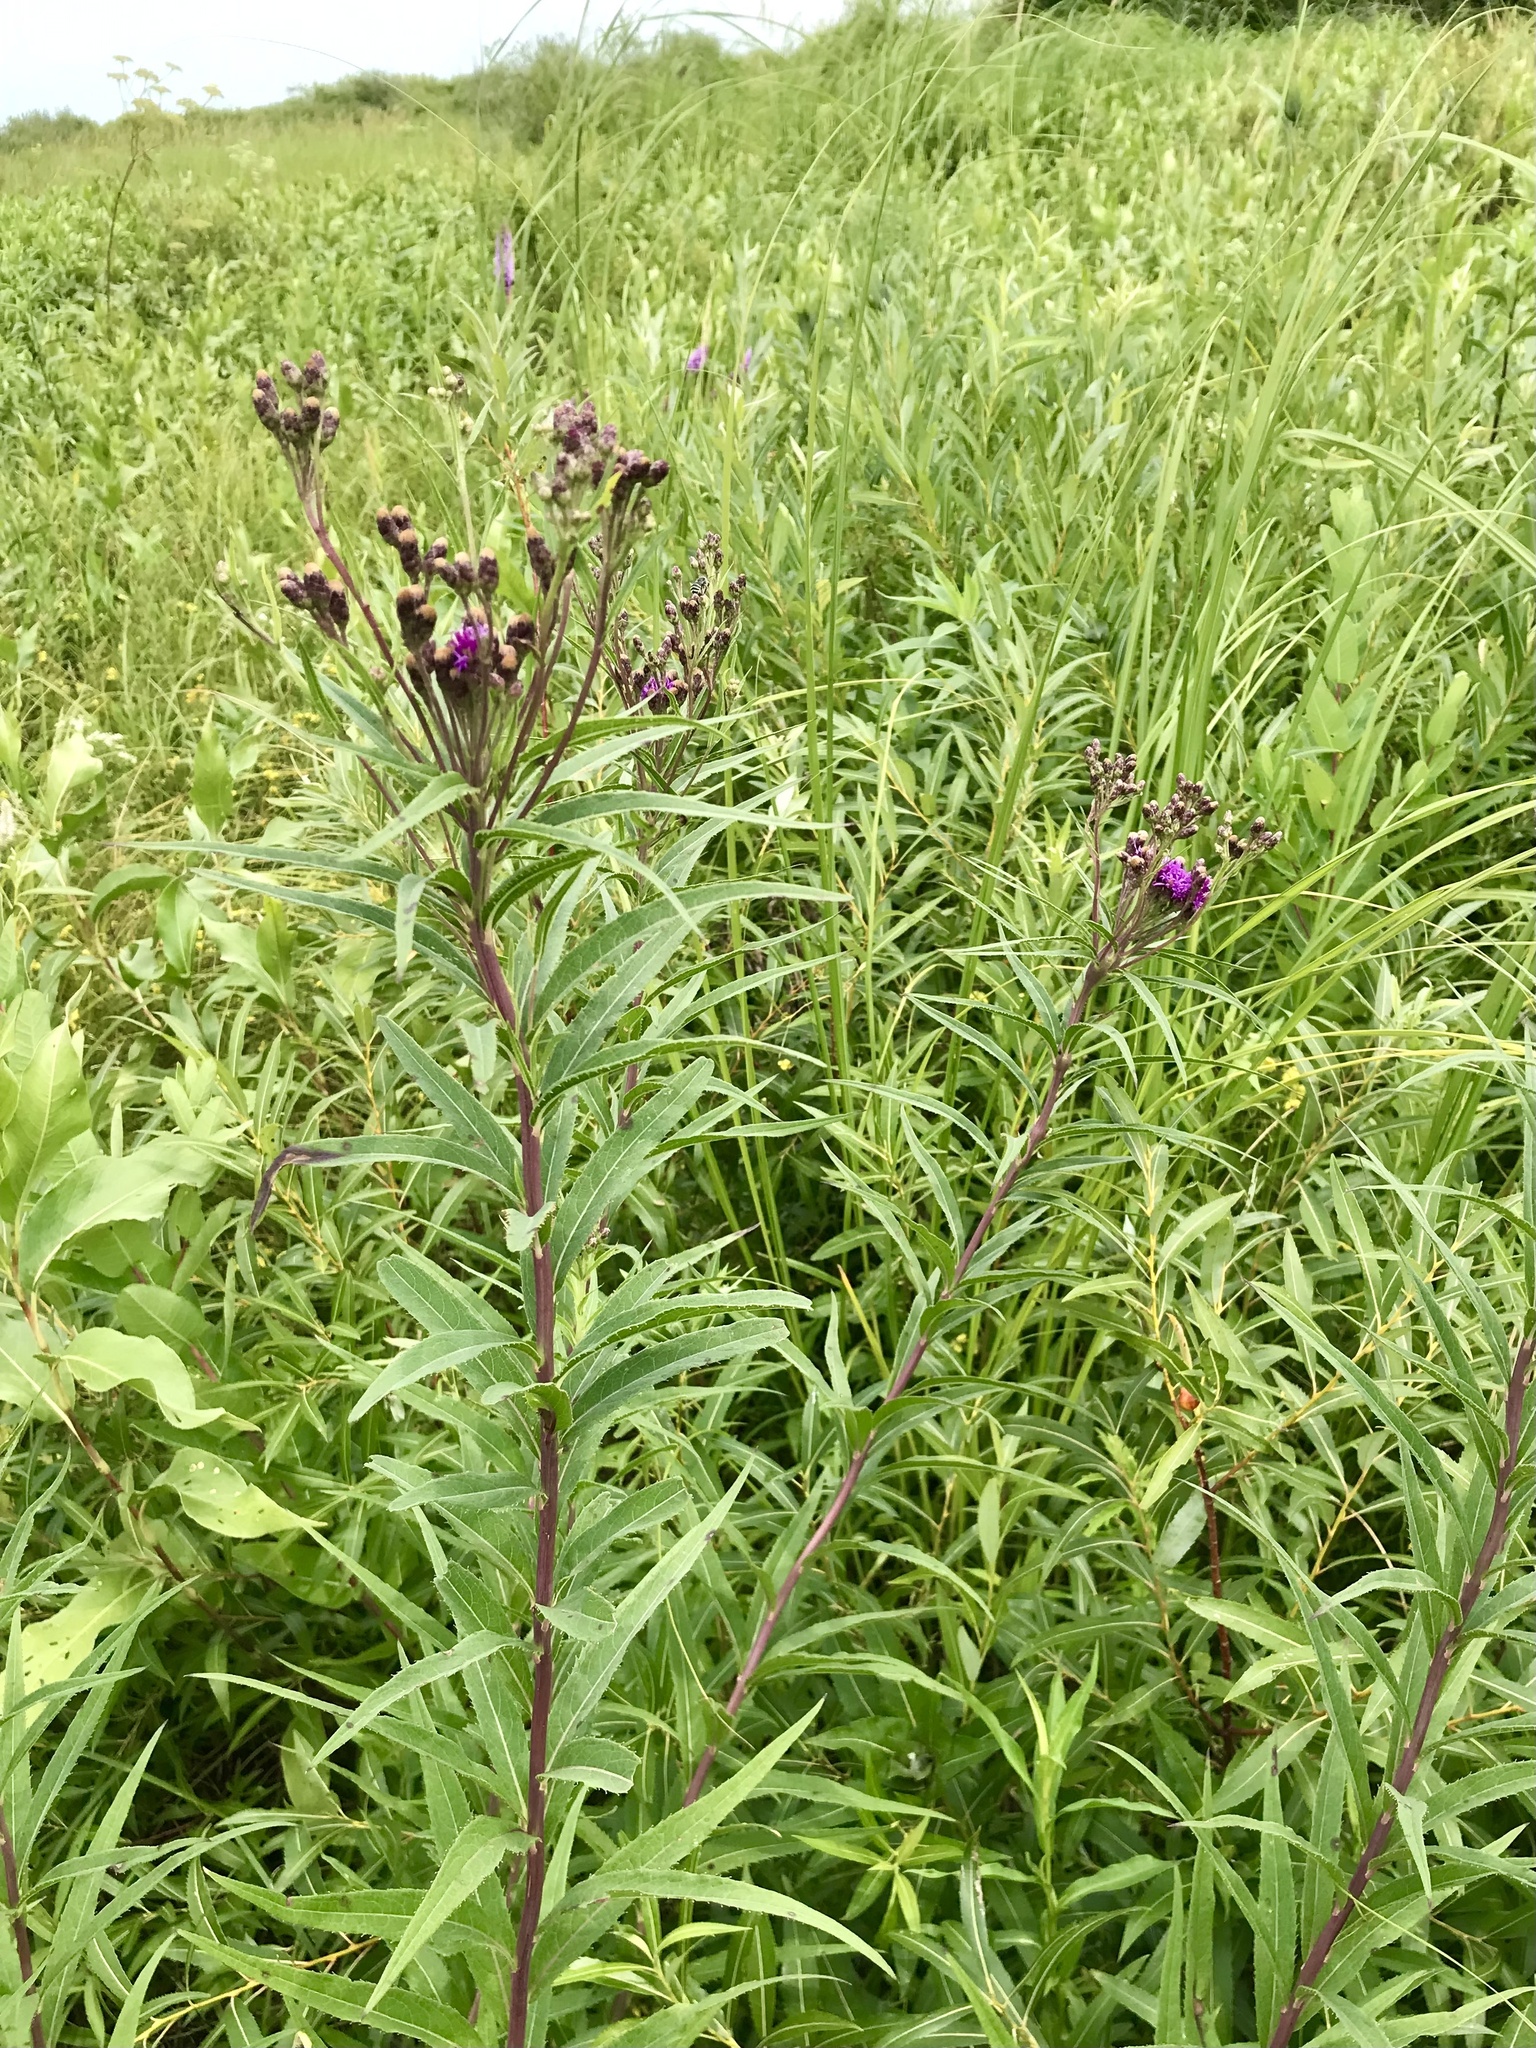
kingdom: Plantae
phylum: Tracheophyta
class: Magnoliopsida
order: Asterales
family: Asteraceae
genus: Vernonia
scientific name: Vernonia fasciculata
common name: Fascicled ironweed
